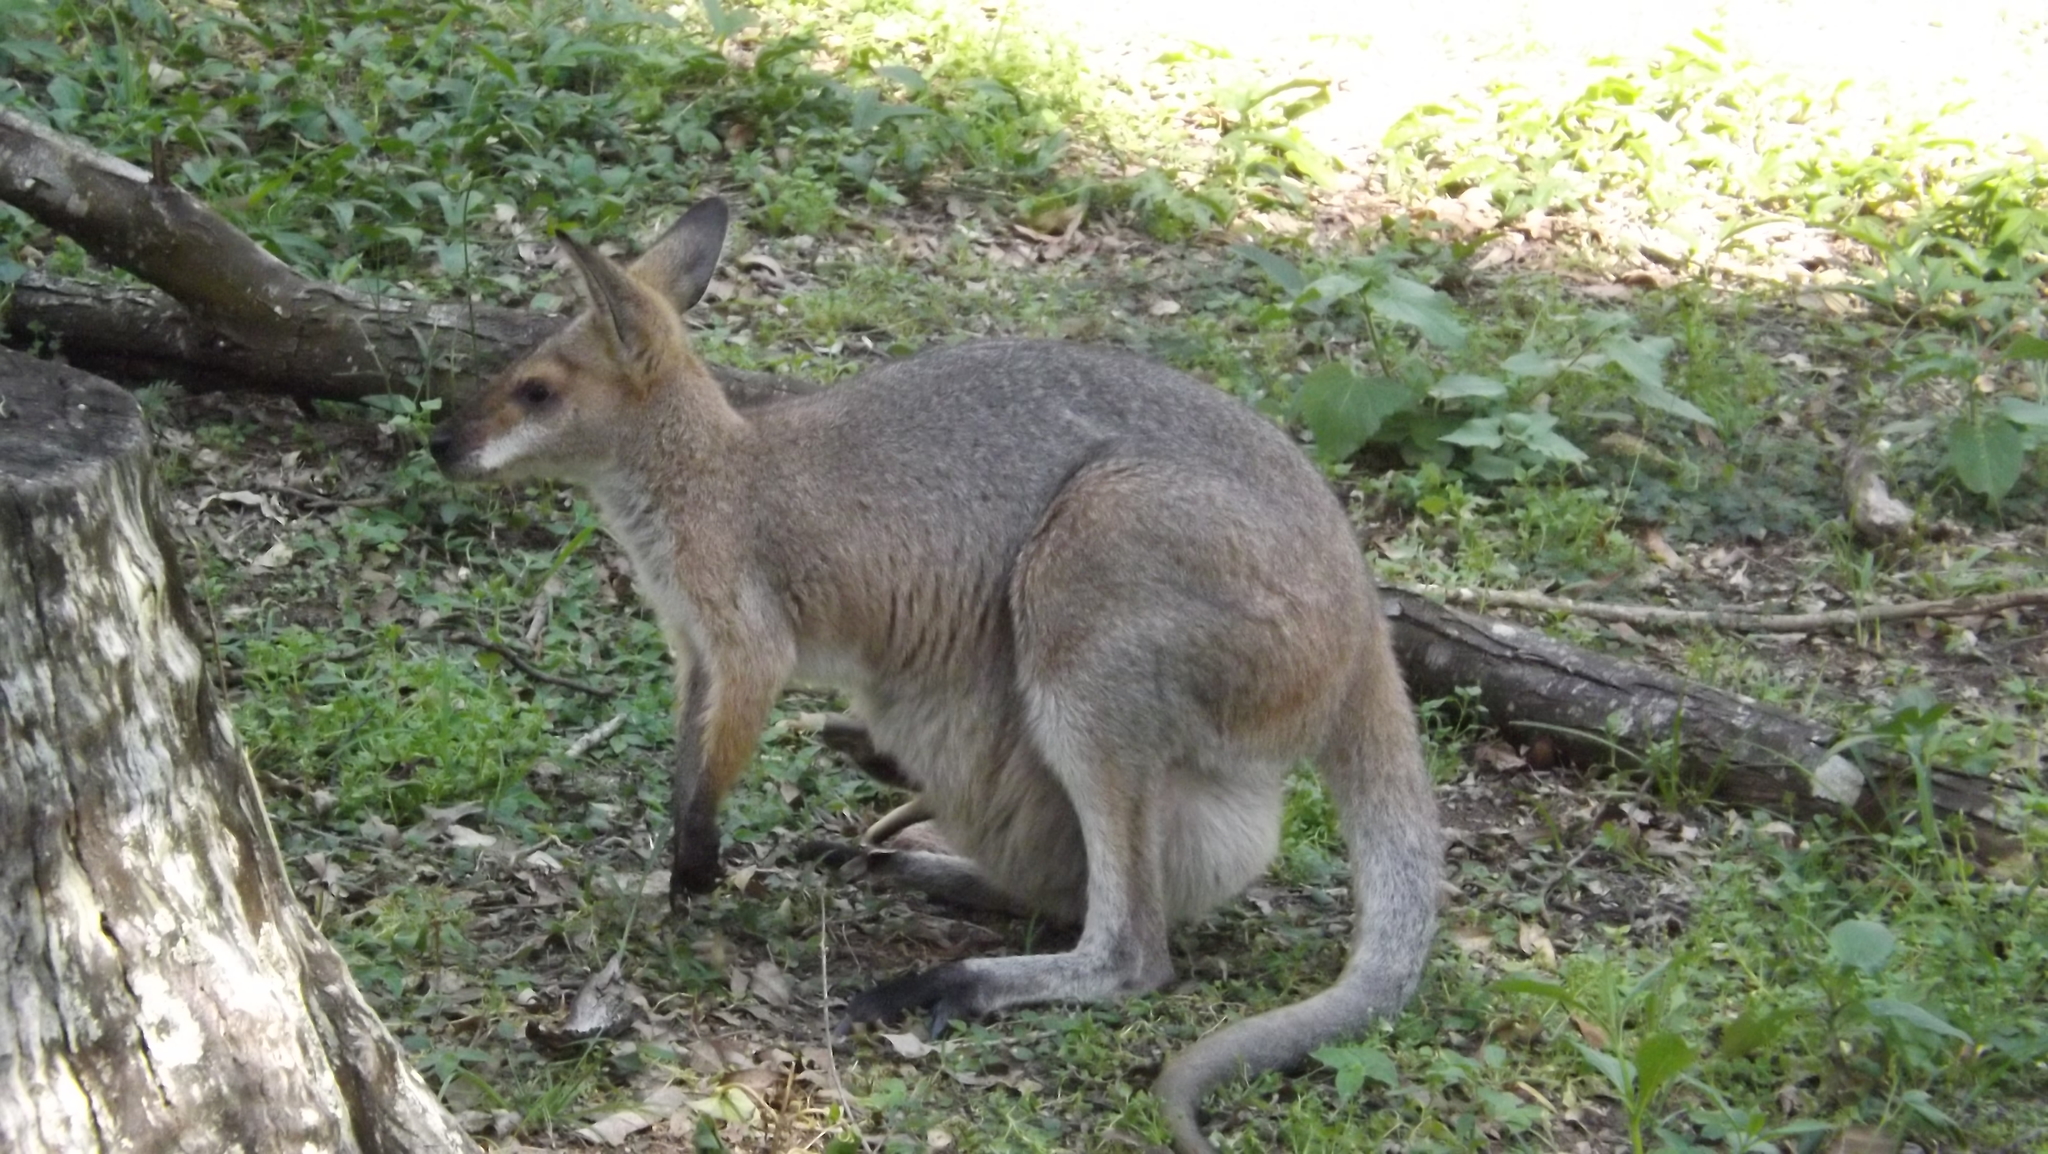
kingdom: Animalia
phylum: Chordata
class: Mammalia
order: Diprotodontia
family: Macropodidae
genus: Notamacropus
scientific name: Notamacropus rufogriseus
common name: Red-necked wallaby
